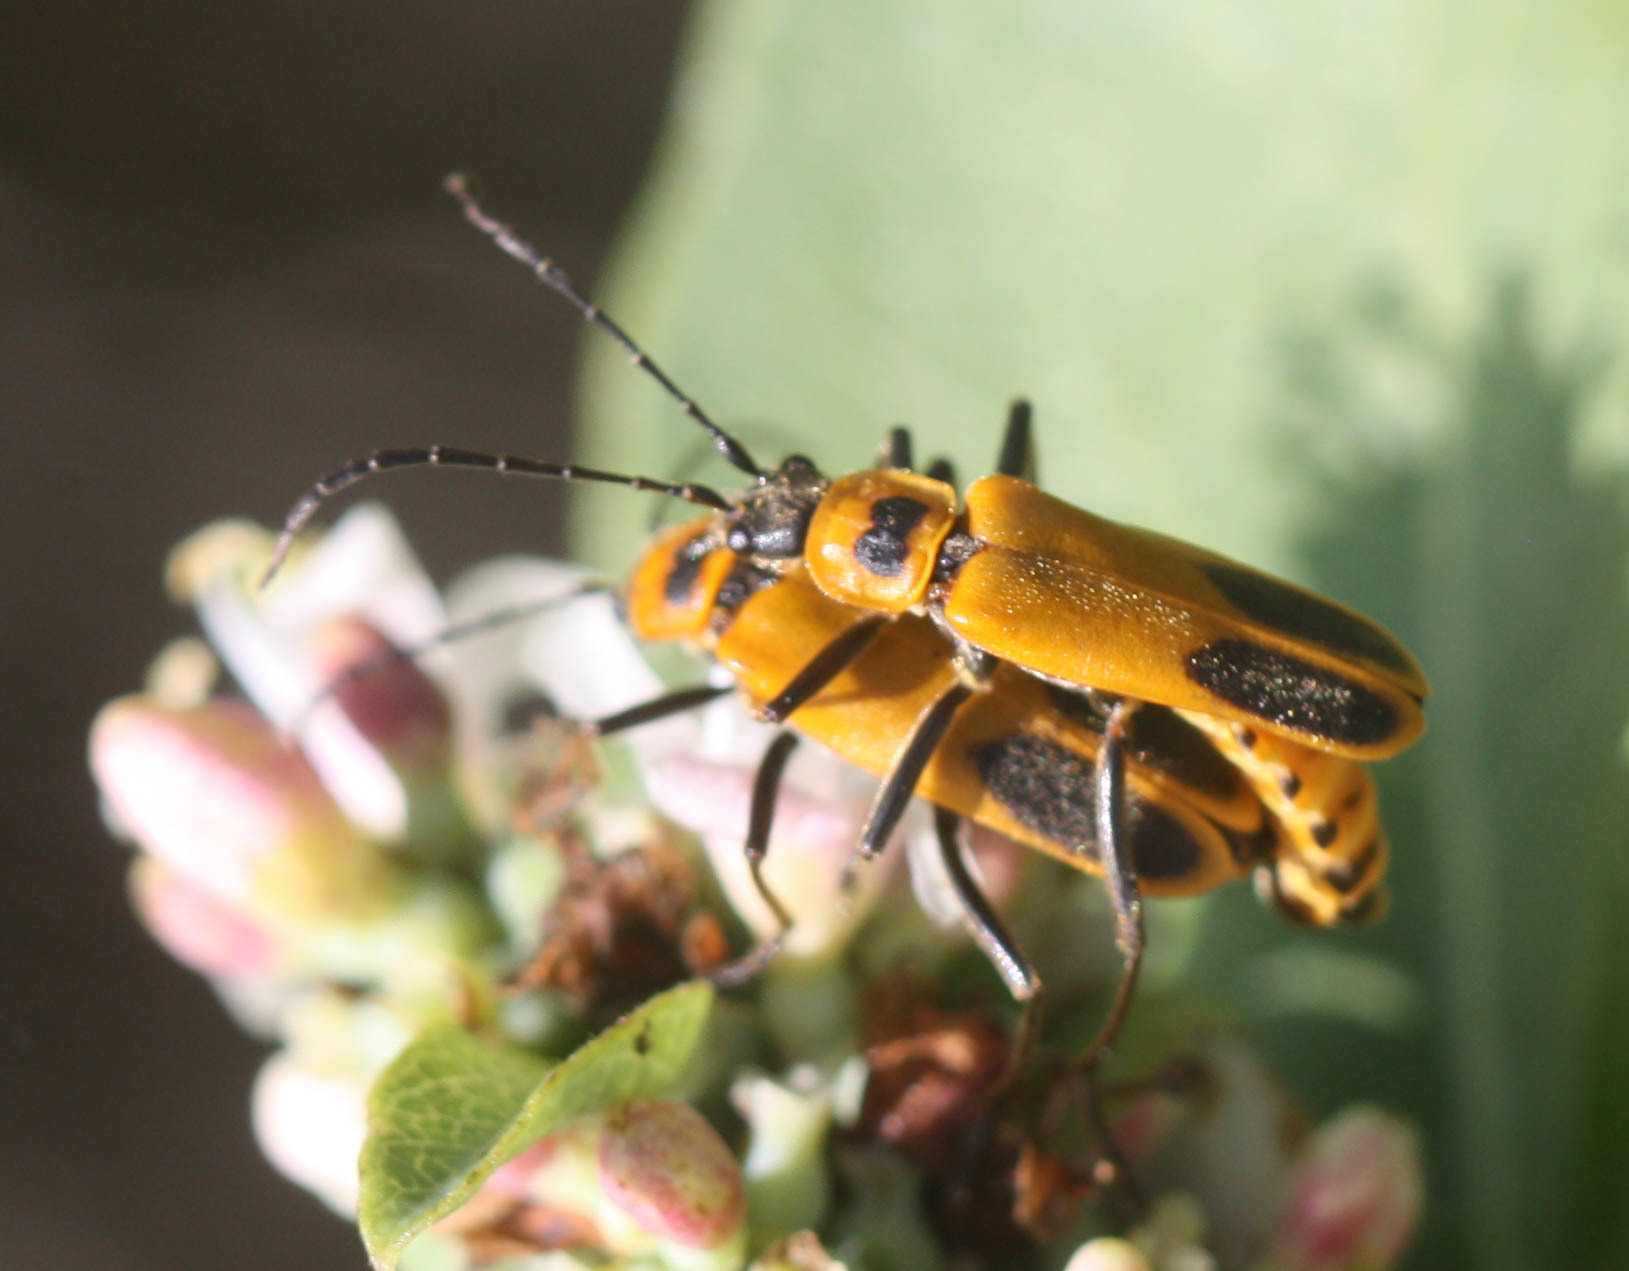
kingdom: Animalia
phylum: Arthropoda
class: Insecta
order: Coleoptera
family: Cantharidae
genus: Chauliognathus
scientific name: Chauliognathus pensylvanicus
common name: Goldenrod soldier beetle
